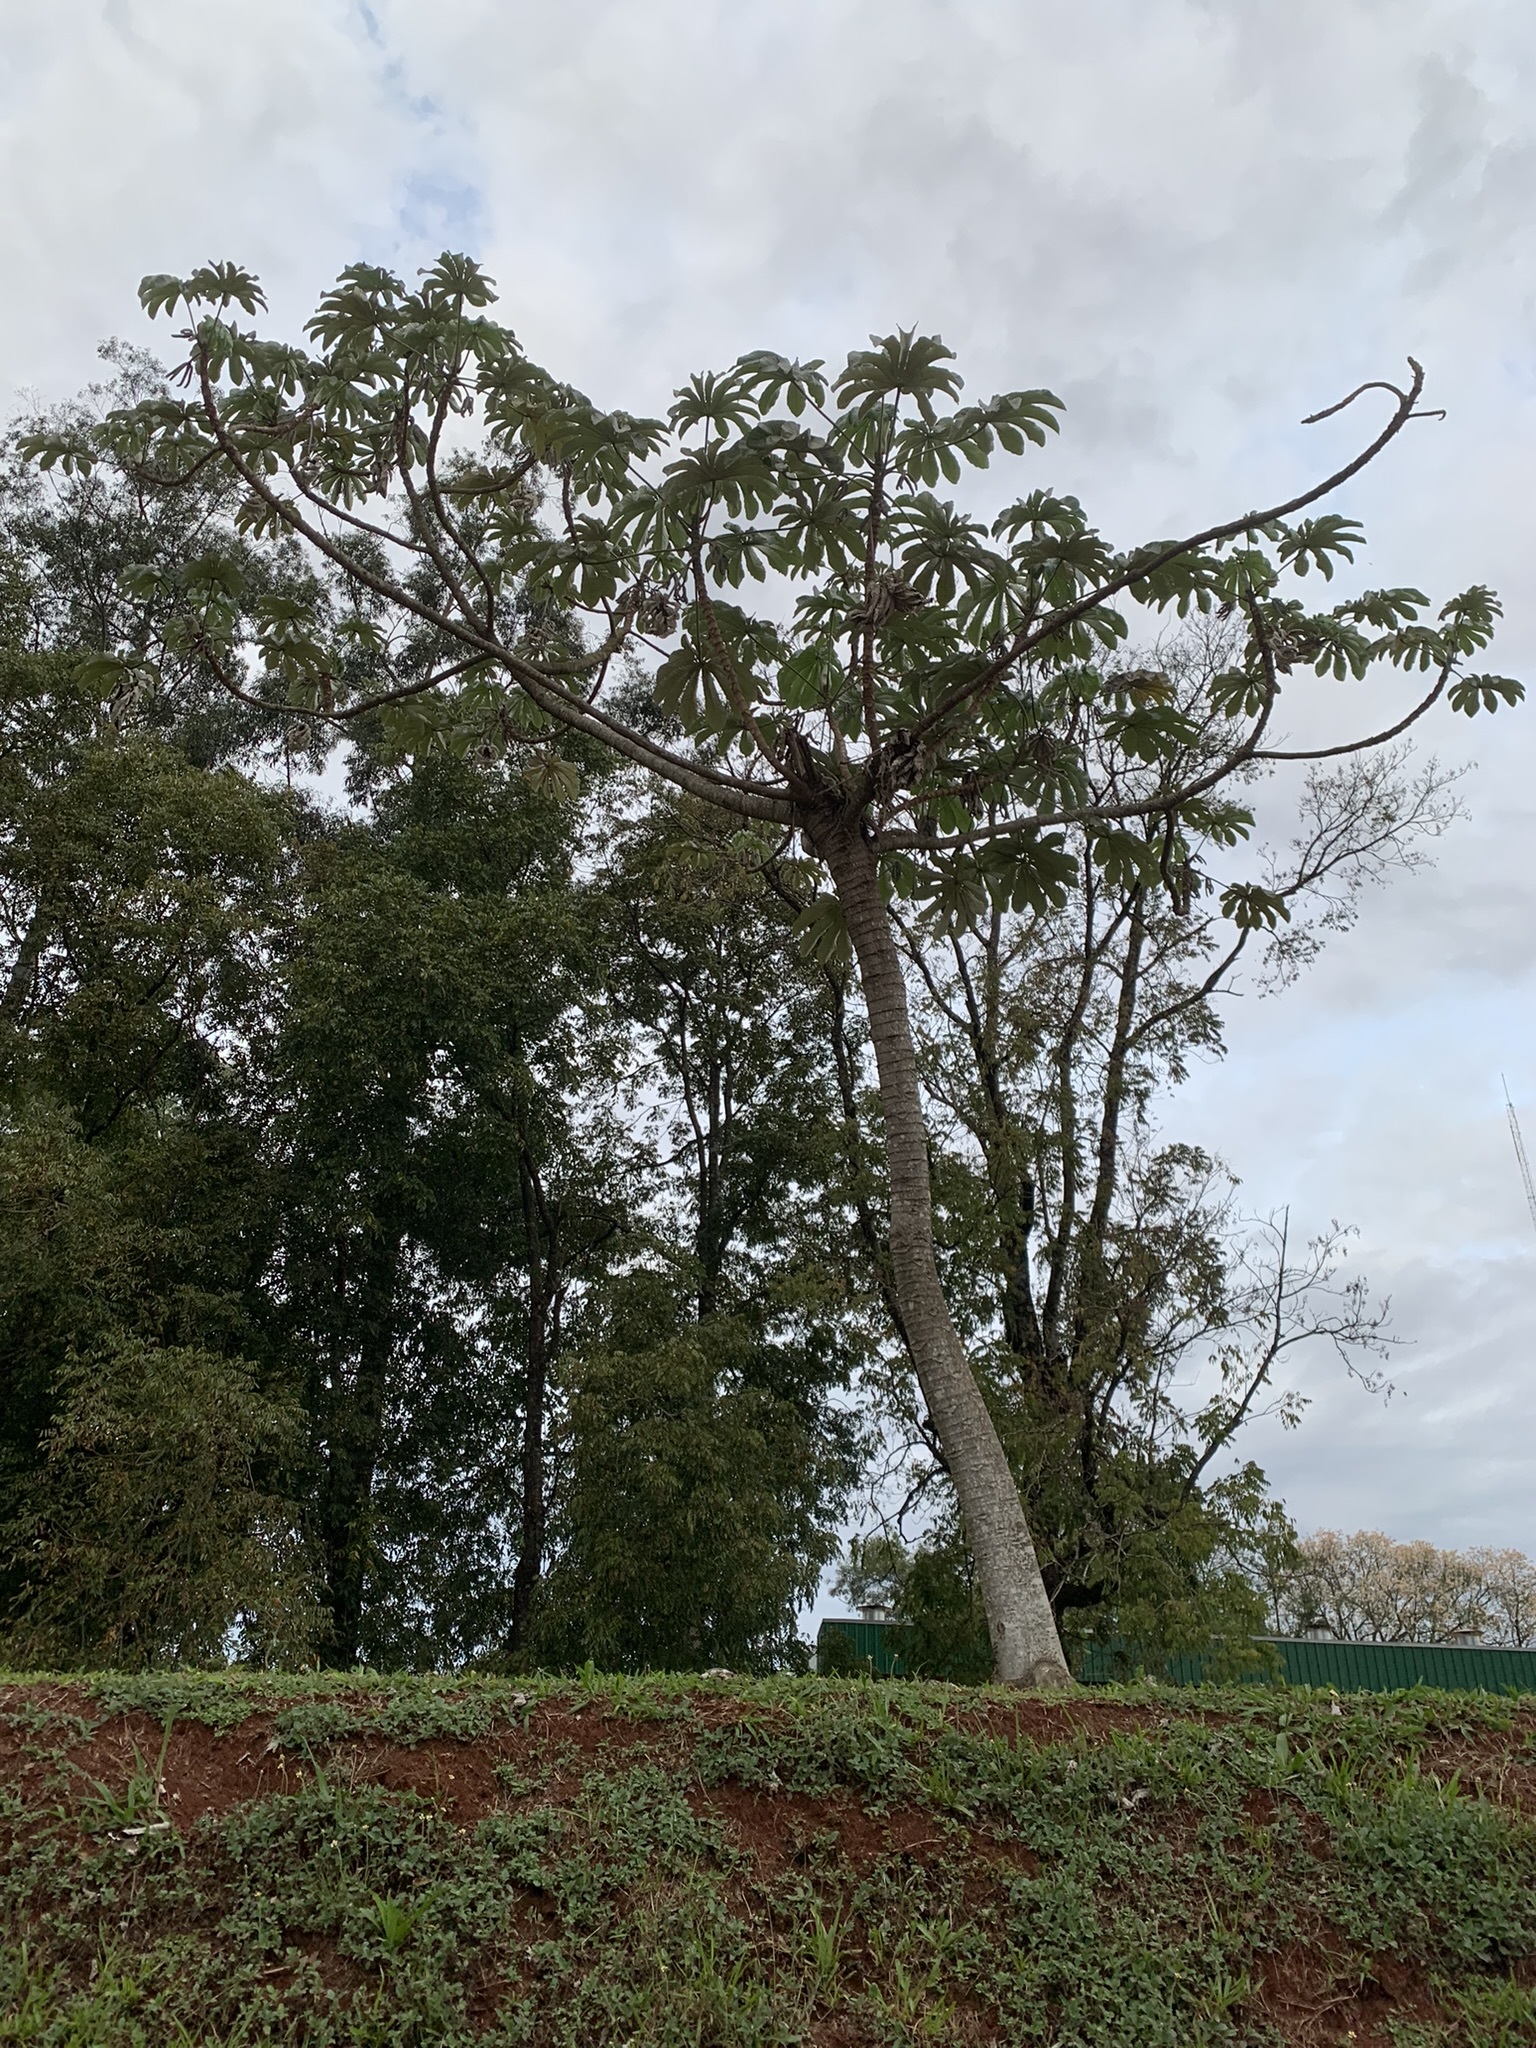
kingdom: Plantae
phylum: Tracheophyta
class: Magnoliopsida
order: Rosales
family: Urticaceae
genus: Cecropia
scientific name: Cecropia pachystachya
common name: Ambay pumpwood
